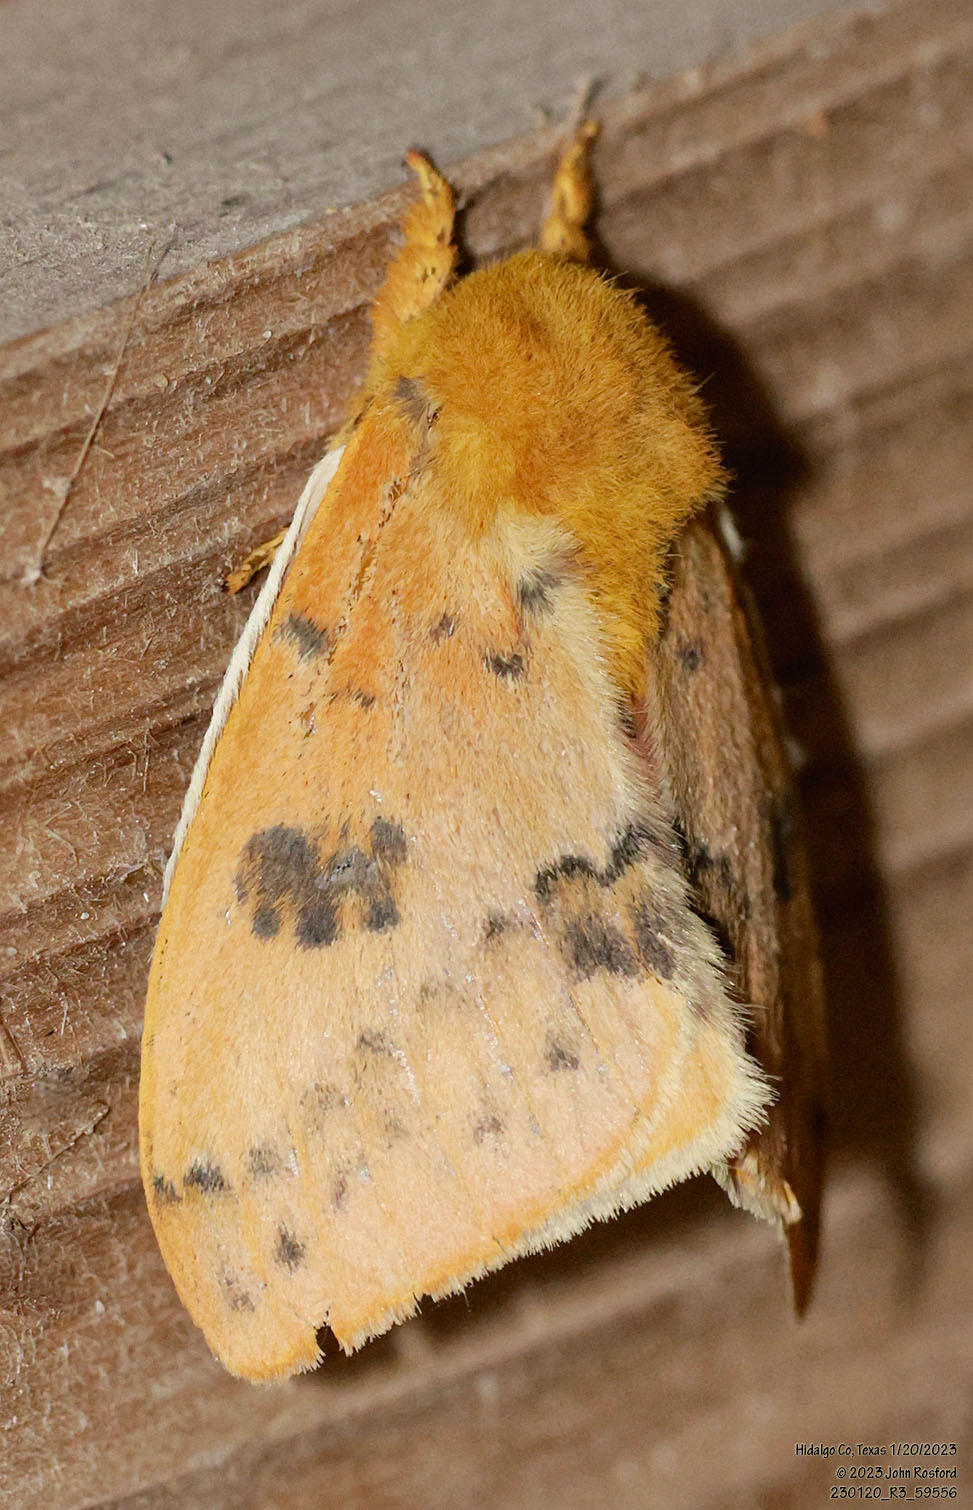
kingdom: Animalia
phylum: Arthropoda
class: Insecta
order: Lepidoptera
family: Saturniidae
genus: Automeris
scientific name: Automeris io
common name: Io moth
